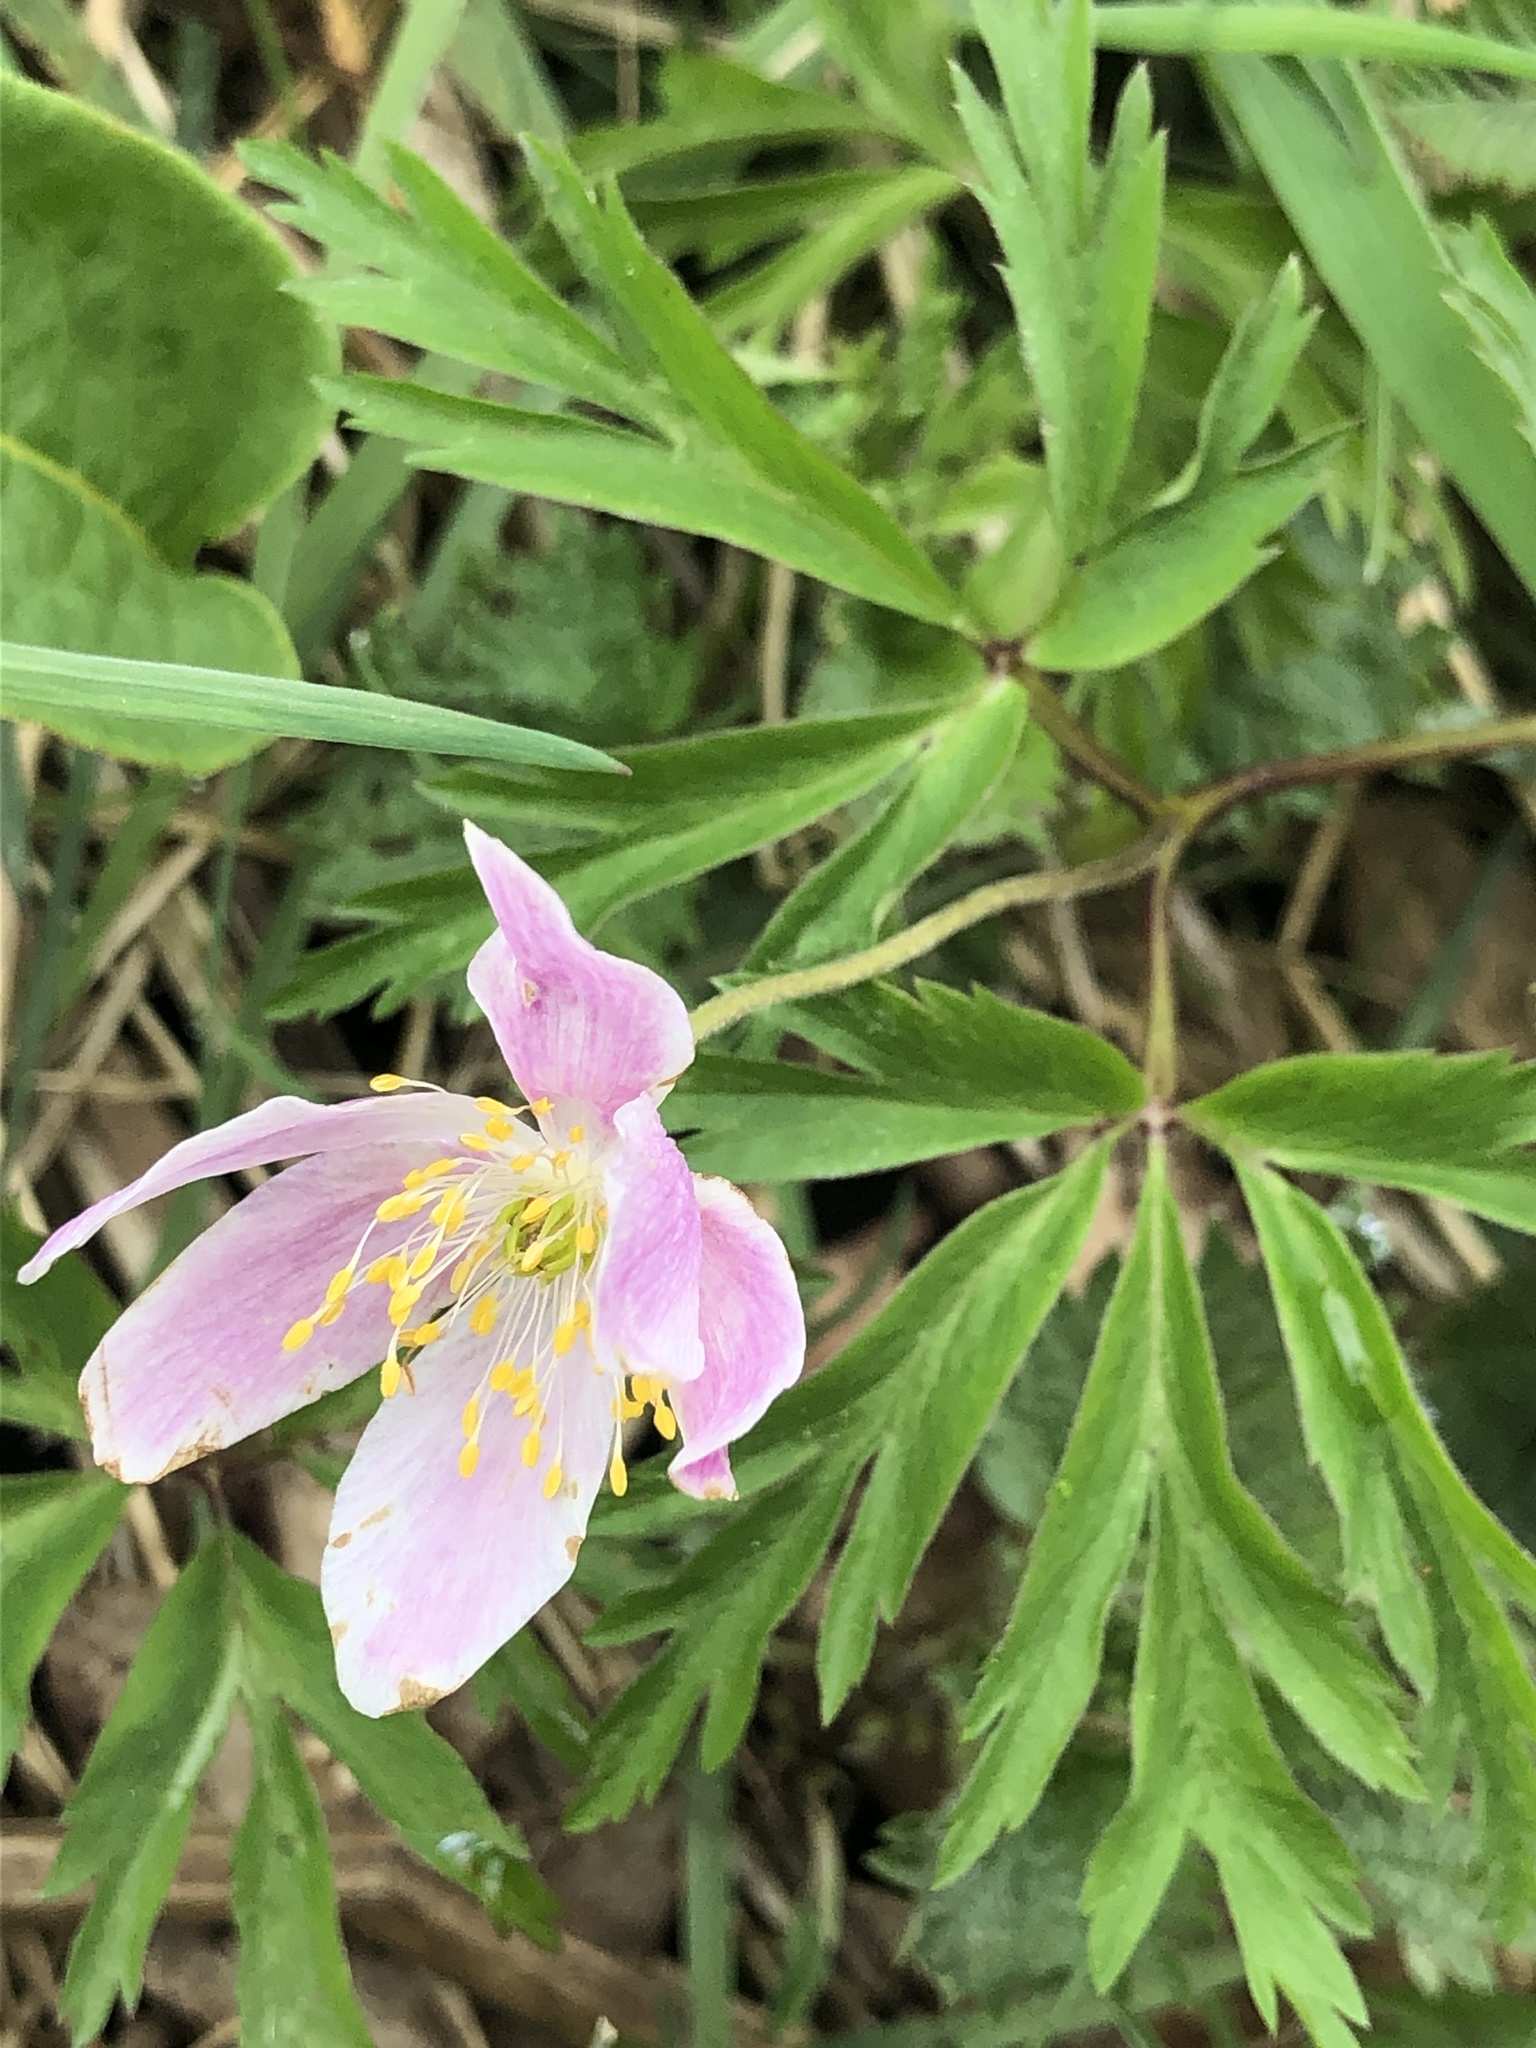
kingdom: Plantae
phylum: Tracheophyta
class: Magnoliopsida
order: Ranunculales
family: Ranunculaceae
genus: Anemone
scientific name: Anemone nemorosa
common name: Wood anemone
